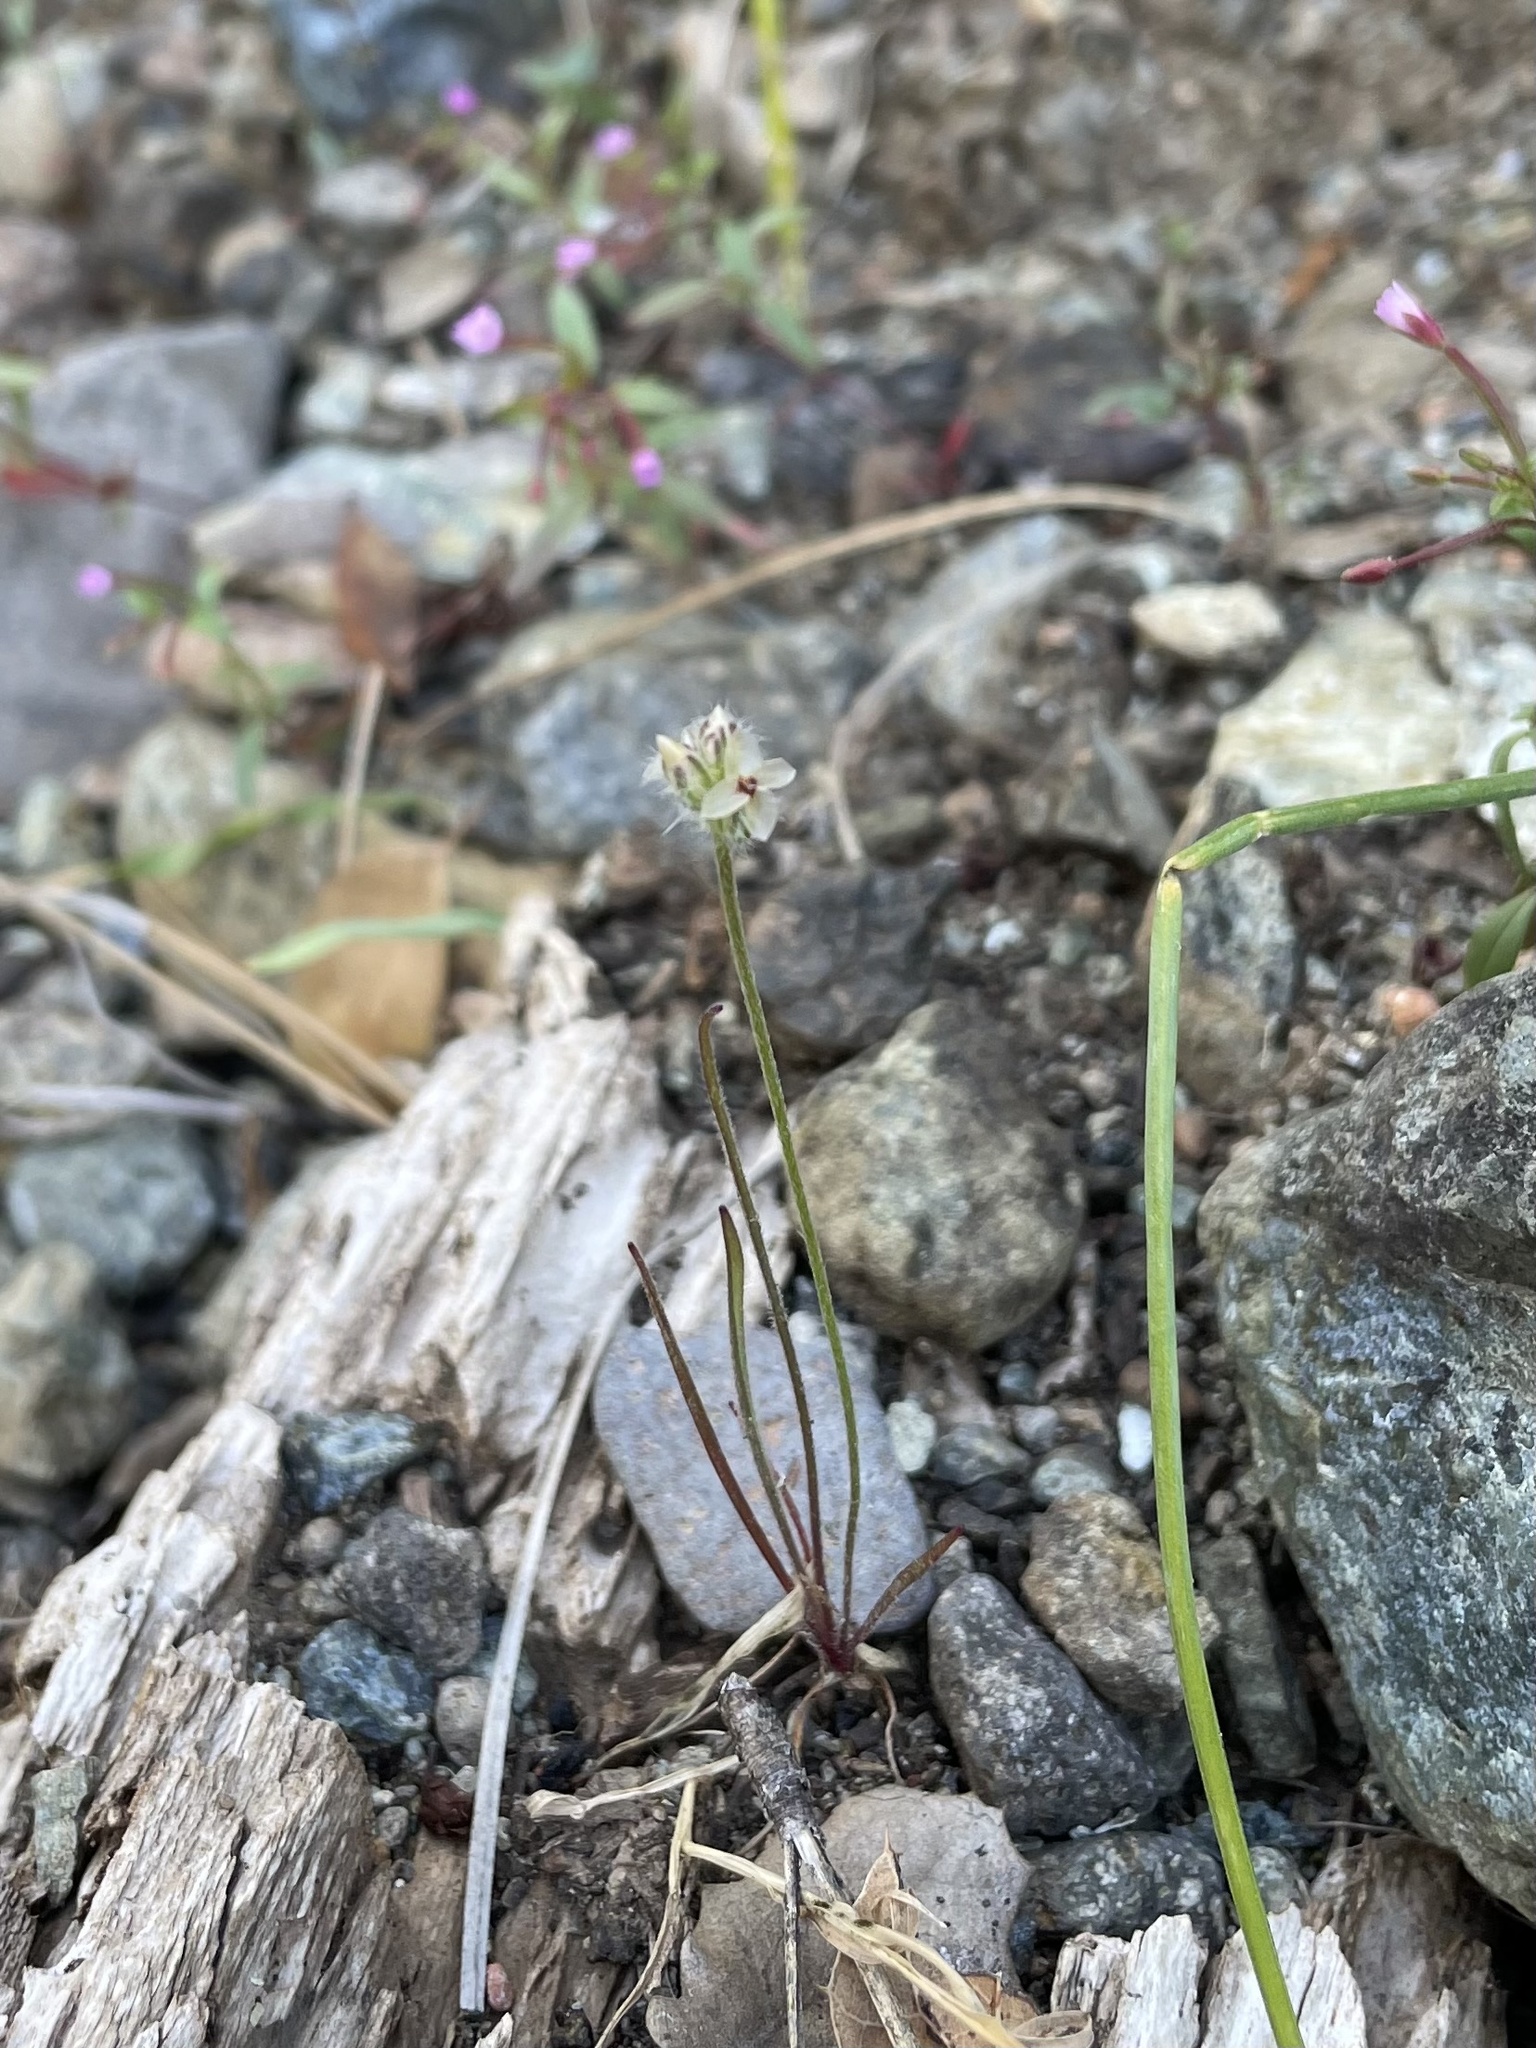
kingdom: Plantae
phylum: Tracheophyta
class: Magnoliopsida
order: Lamiales
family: Plantaginaceae
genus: Plantago
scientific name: Plantago erecta
